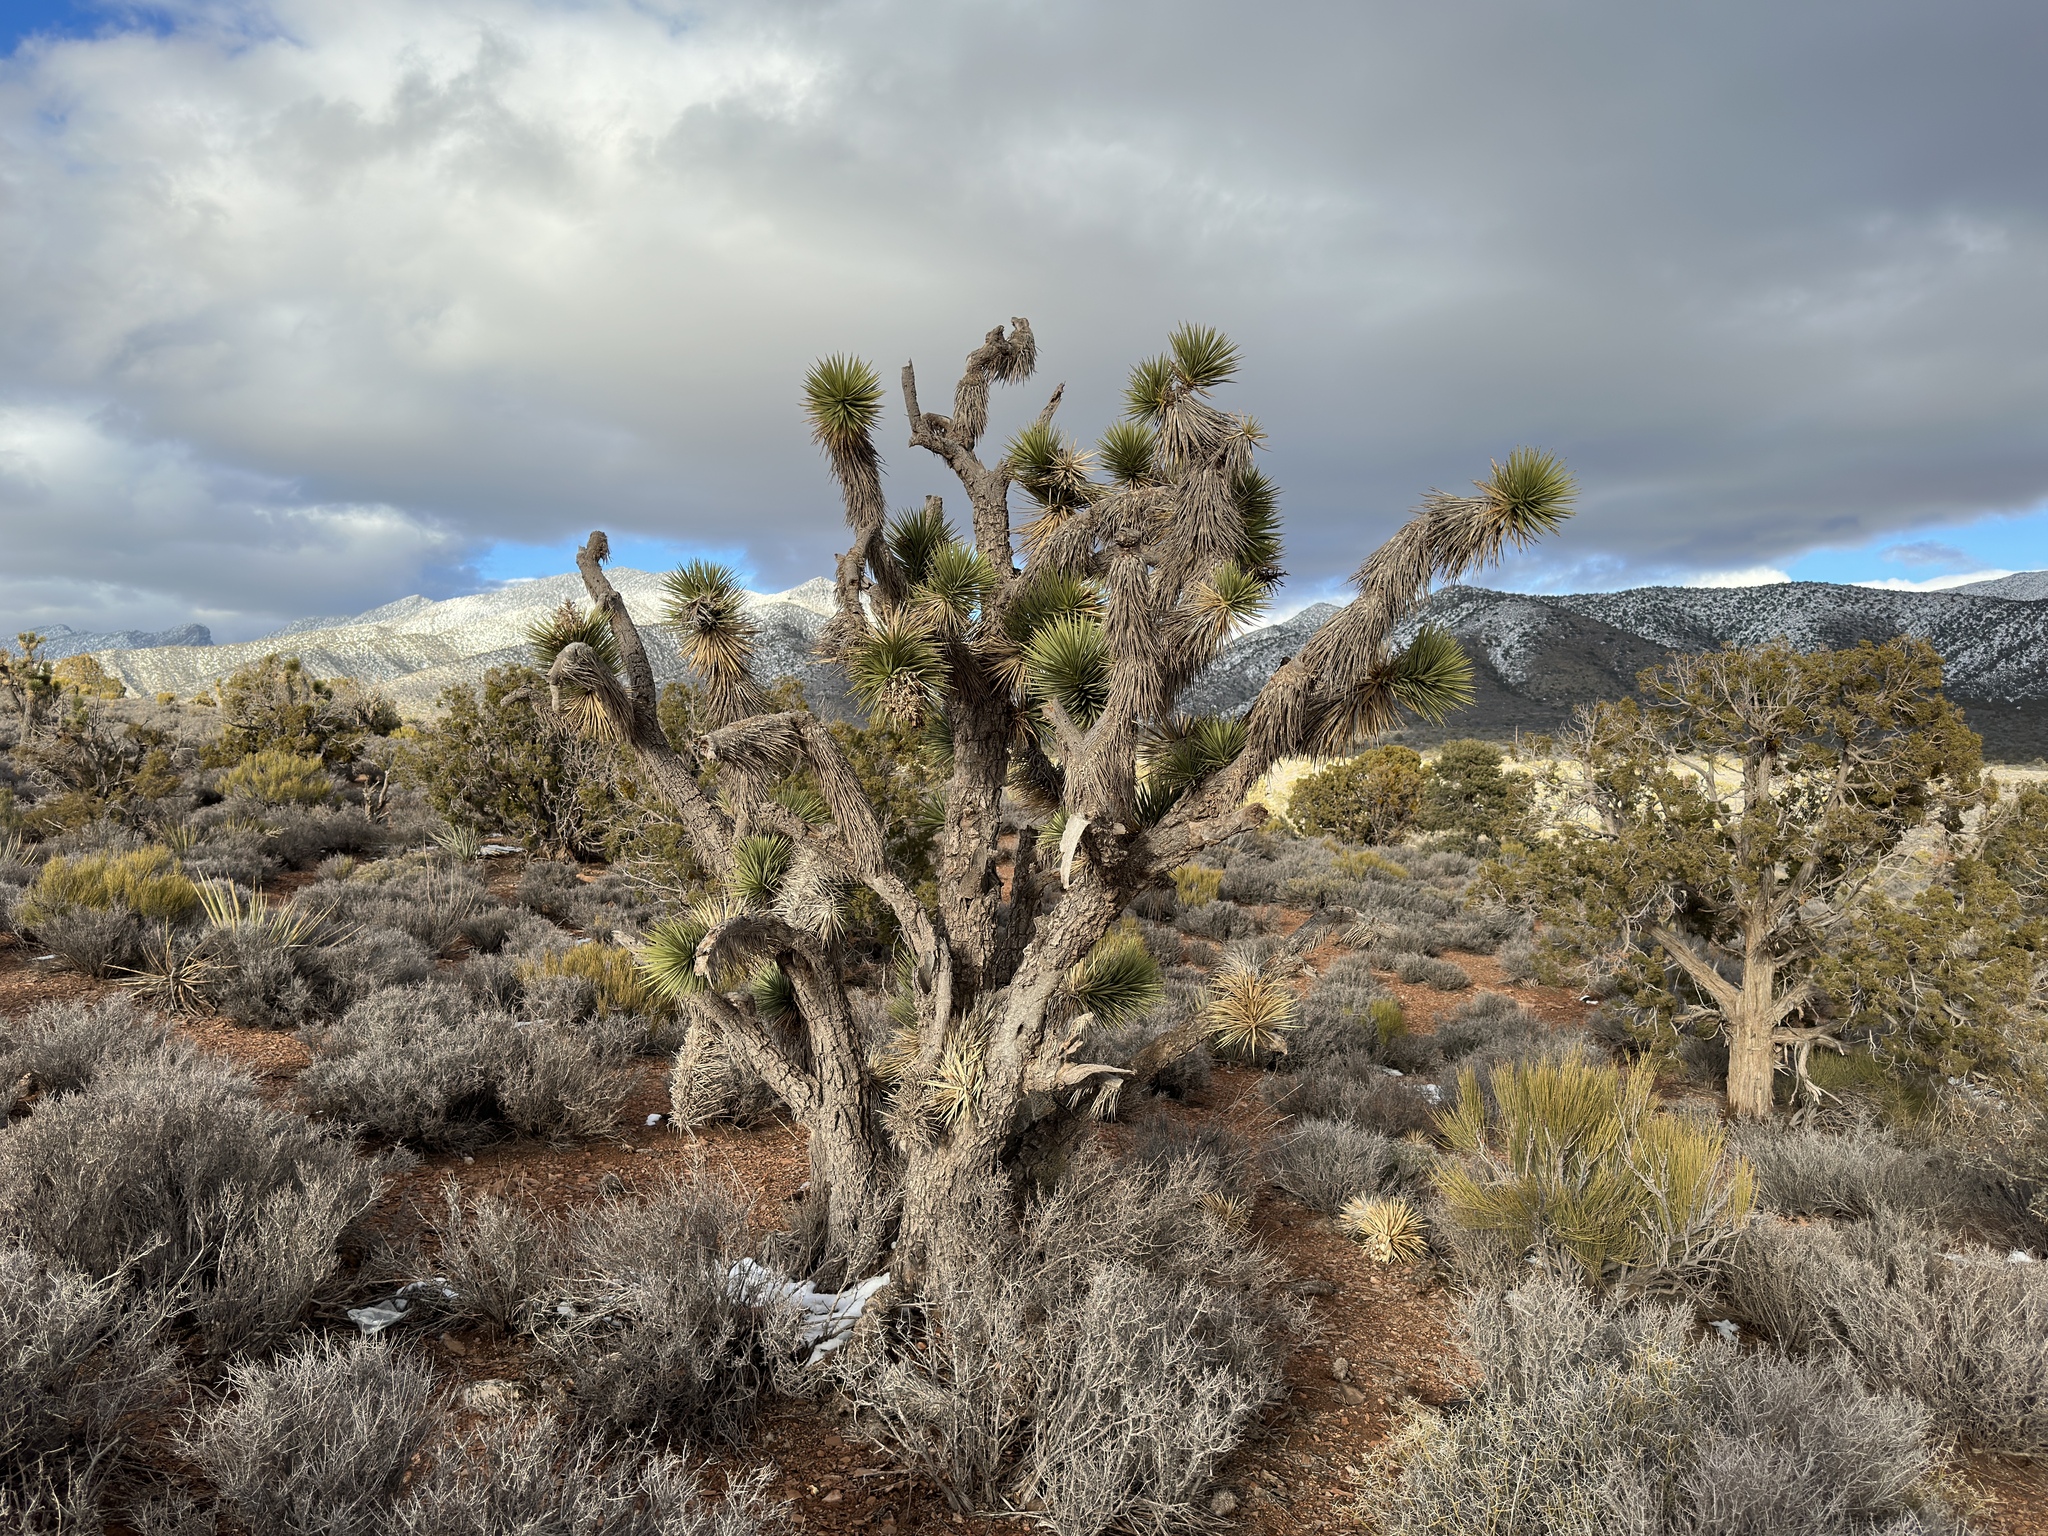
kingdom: Plantae
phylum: Tracheophyta
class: Liliopsida
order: Asparagales
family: Asparagaceae
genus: Yucca
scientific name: Yucca brevifolia
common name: Joshua tree
